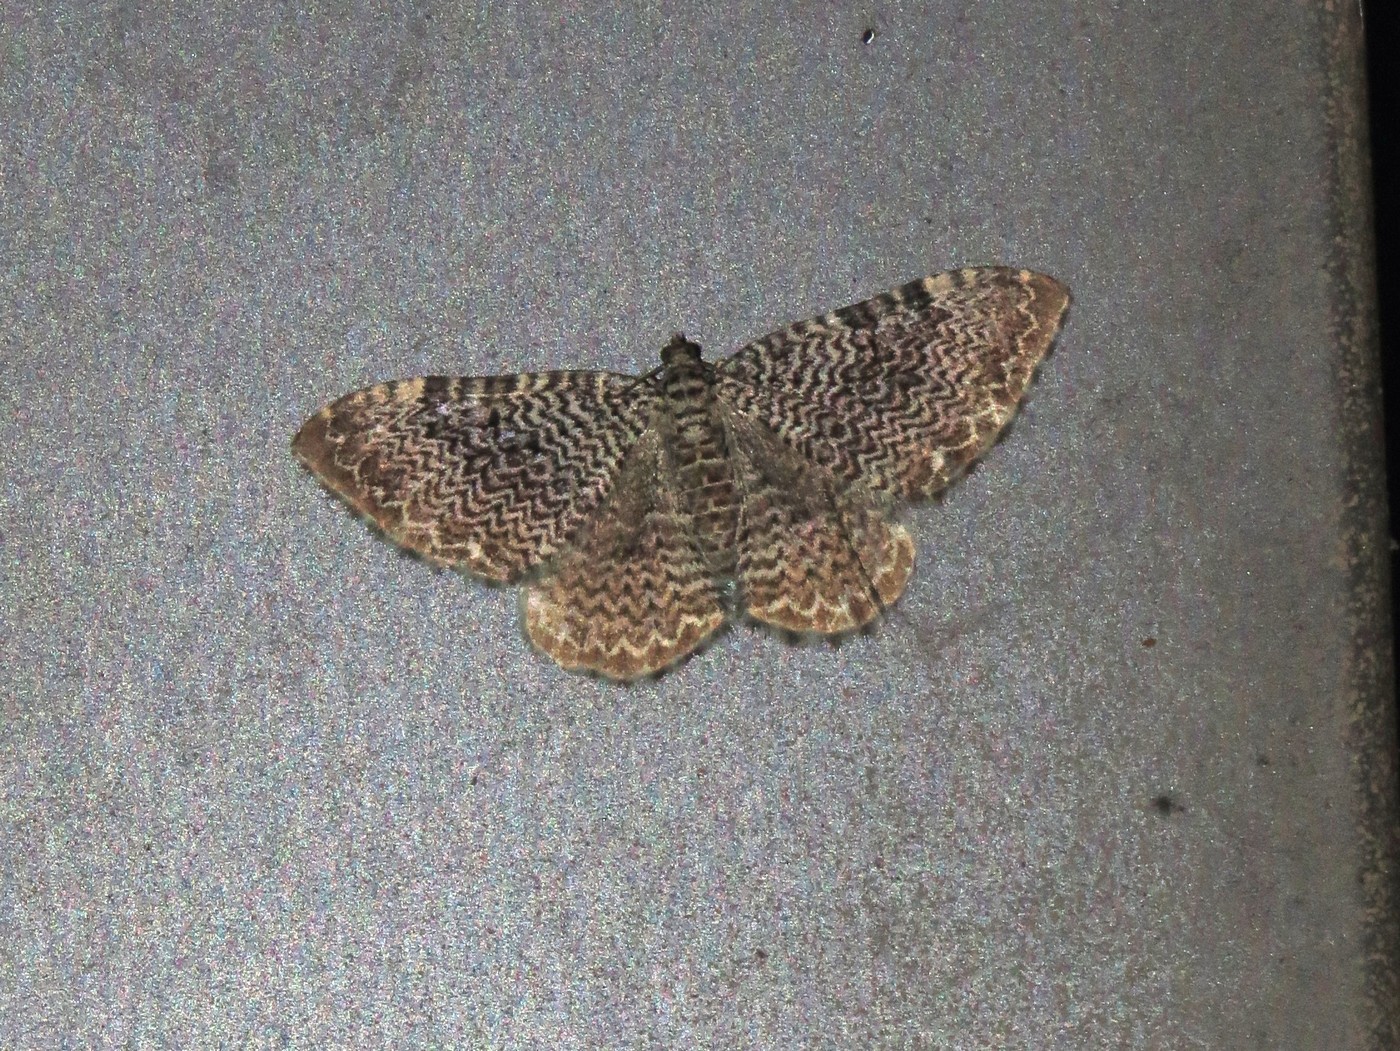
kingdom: Animalia
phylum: Arthropoda
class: Insecta
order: Lepidoptera
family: Geometridae
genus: Rheumaptera
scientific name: Rheumaptera prunivorata
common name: Cherry scallop shell moth
